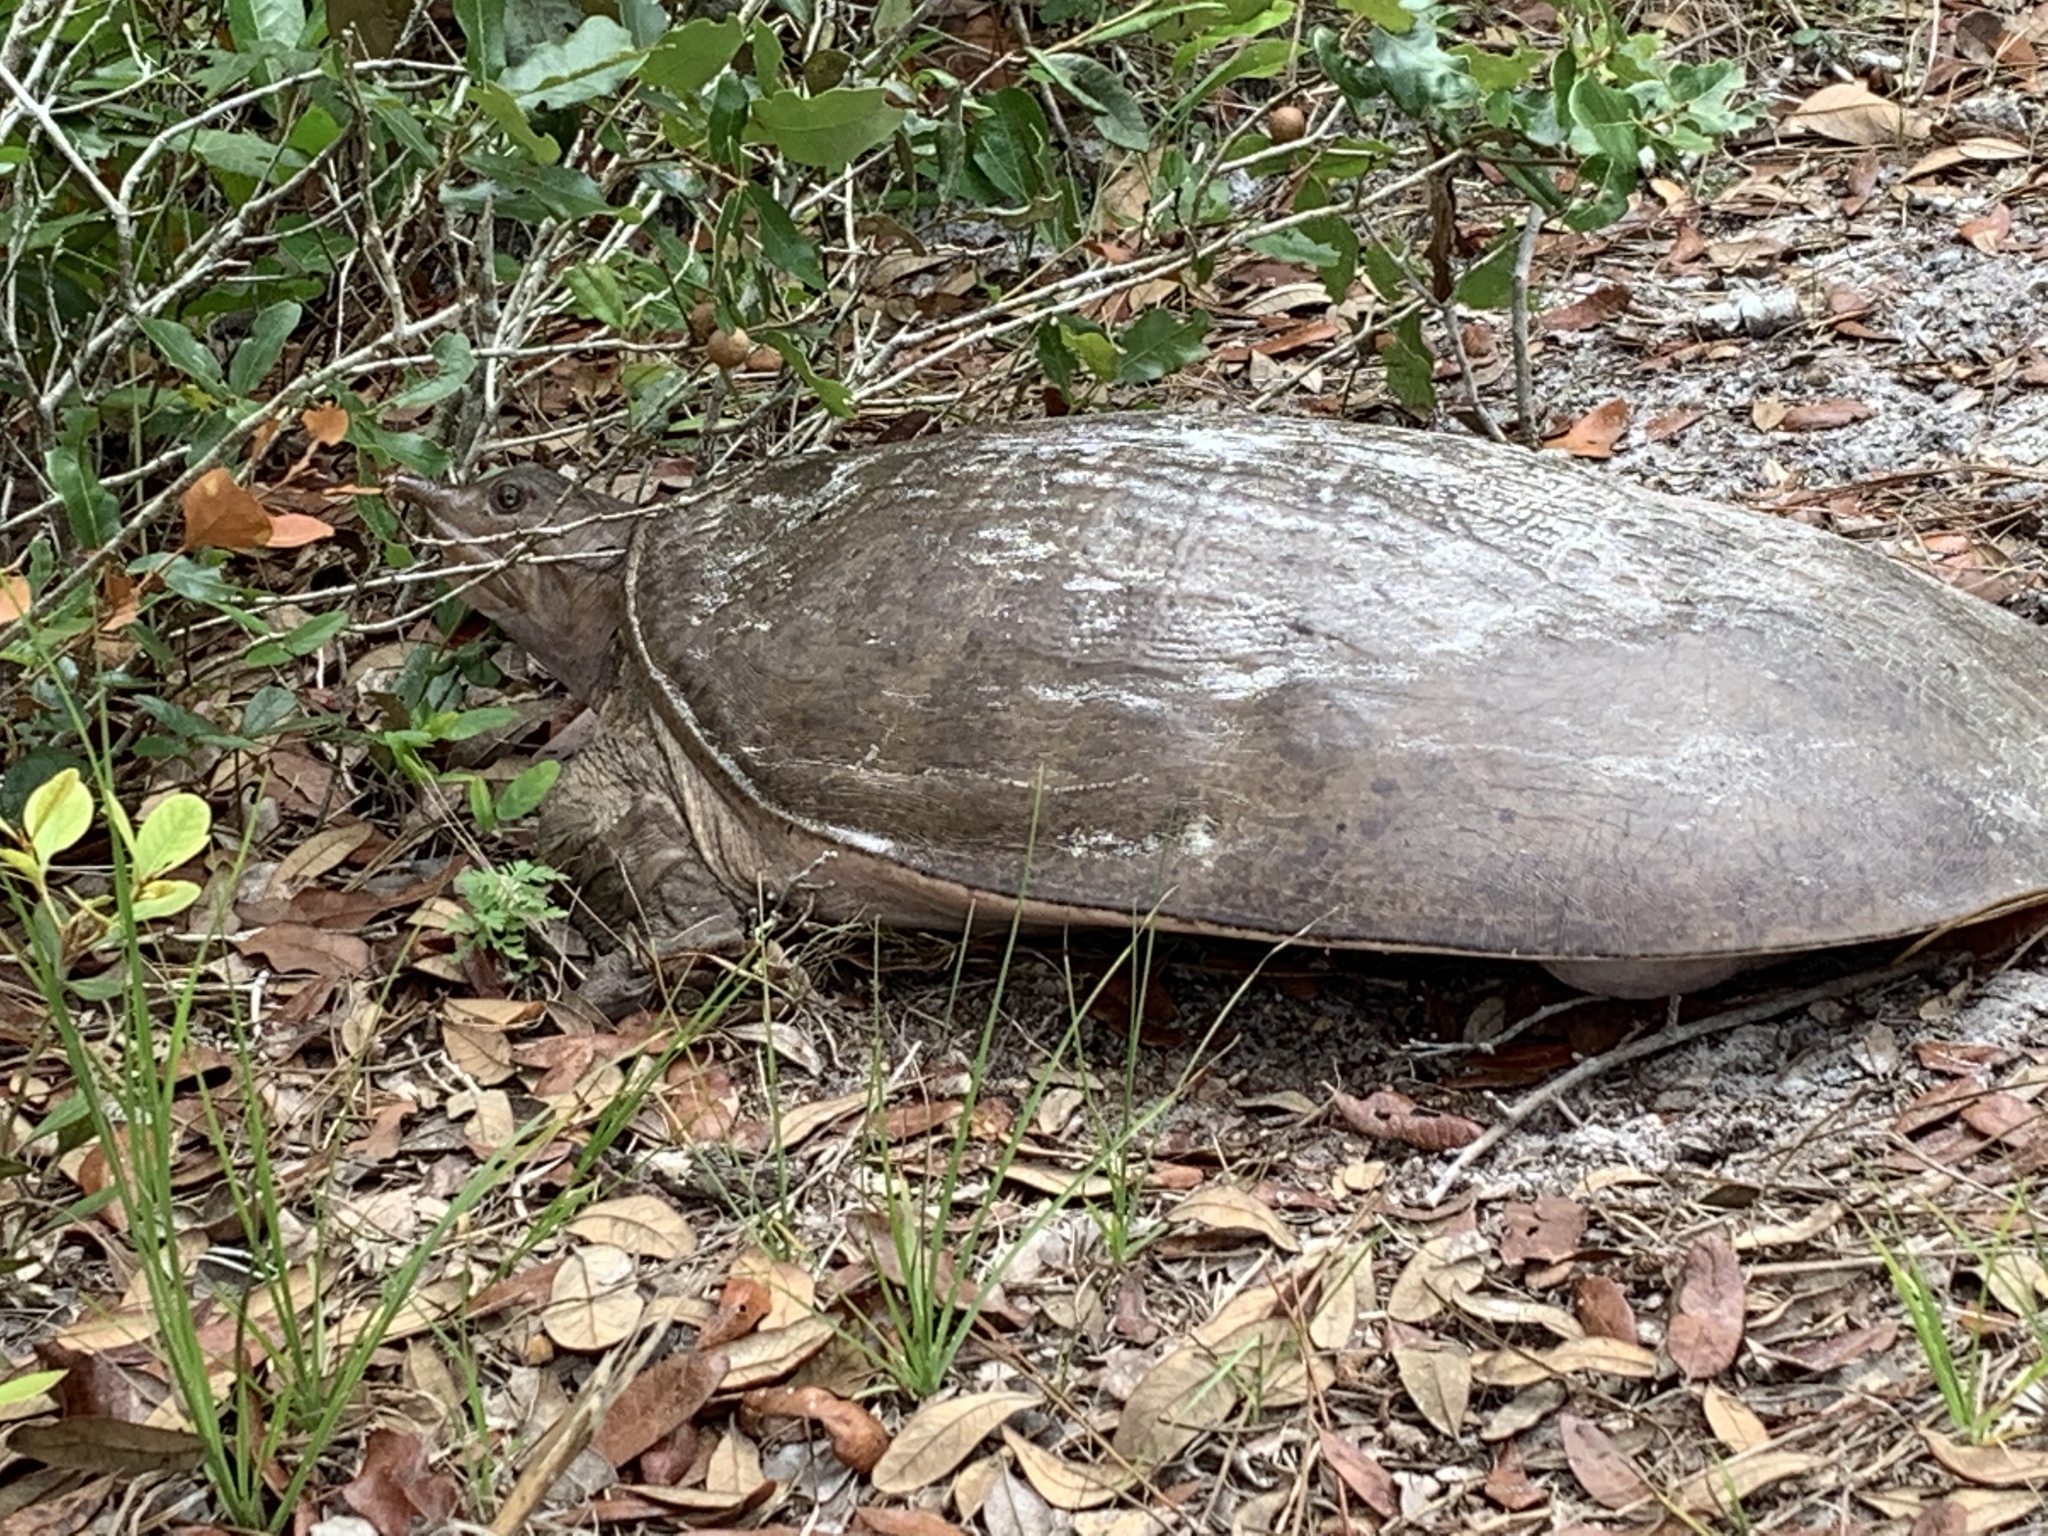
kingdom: Animalia
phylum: Chordata
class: Testudines
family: Trionychidae
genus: Apalone
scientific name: Apalone ferox
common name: Florida softshell turtle
